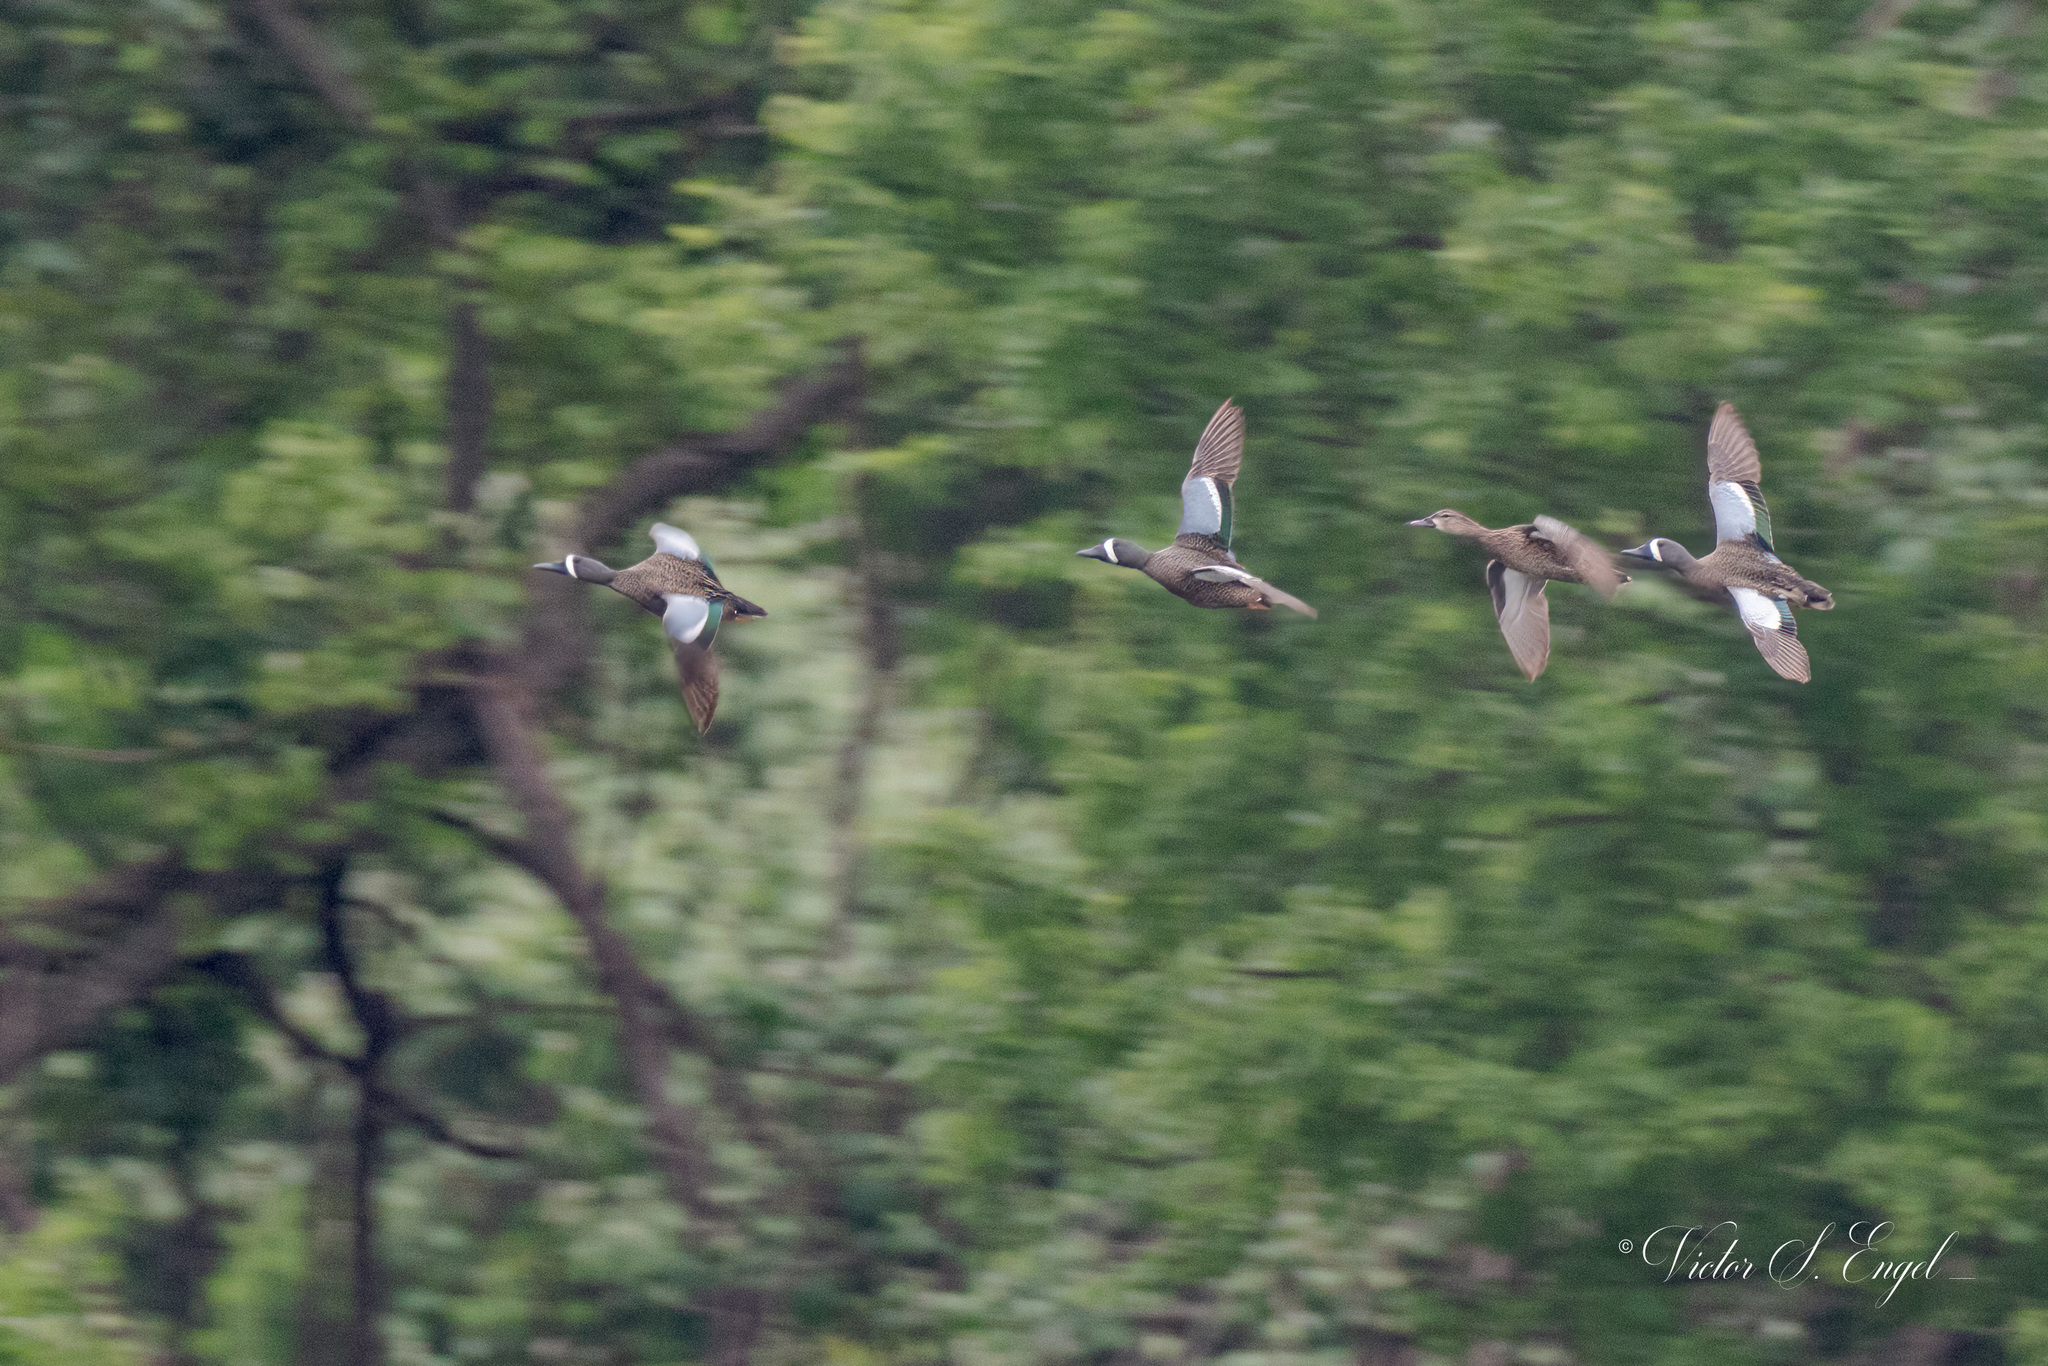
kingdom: Animalia
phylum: Chordata
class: Aves
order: Anseriformes
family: Anatidae
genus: Spatula
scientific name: Spatula discors
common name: Blue-winged teal
